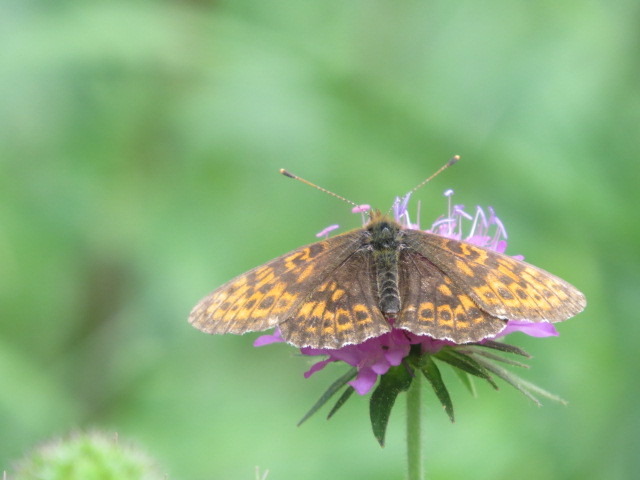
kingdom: Animalia
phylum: Arthropoda
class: Insecta
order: Lepidoptera
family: Nymphalidae
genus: Boloria
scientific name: Boloria thore
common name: Thor's fritillary
